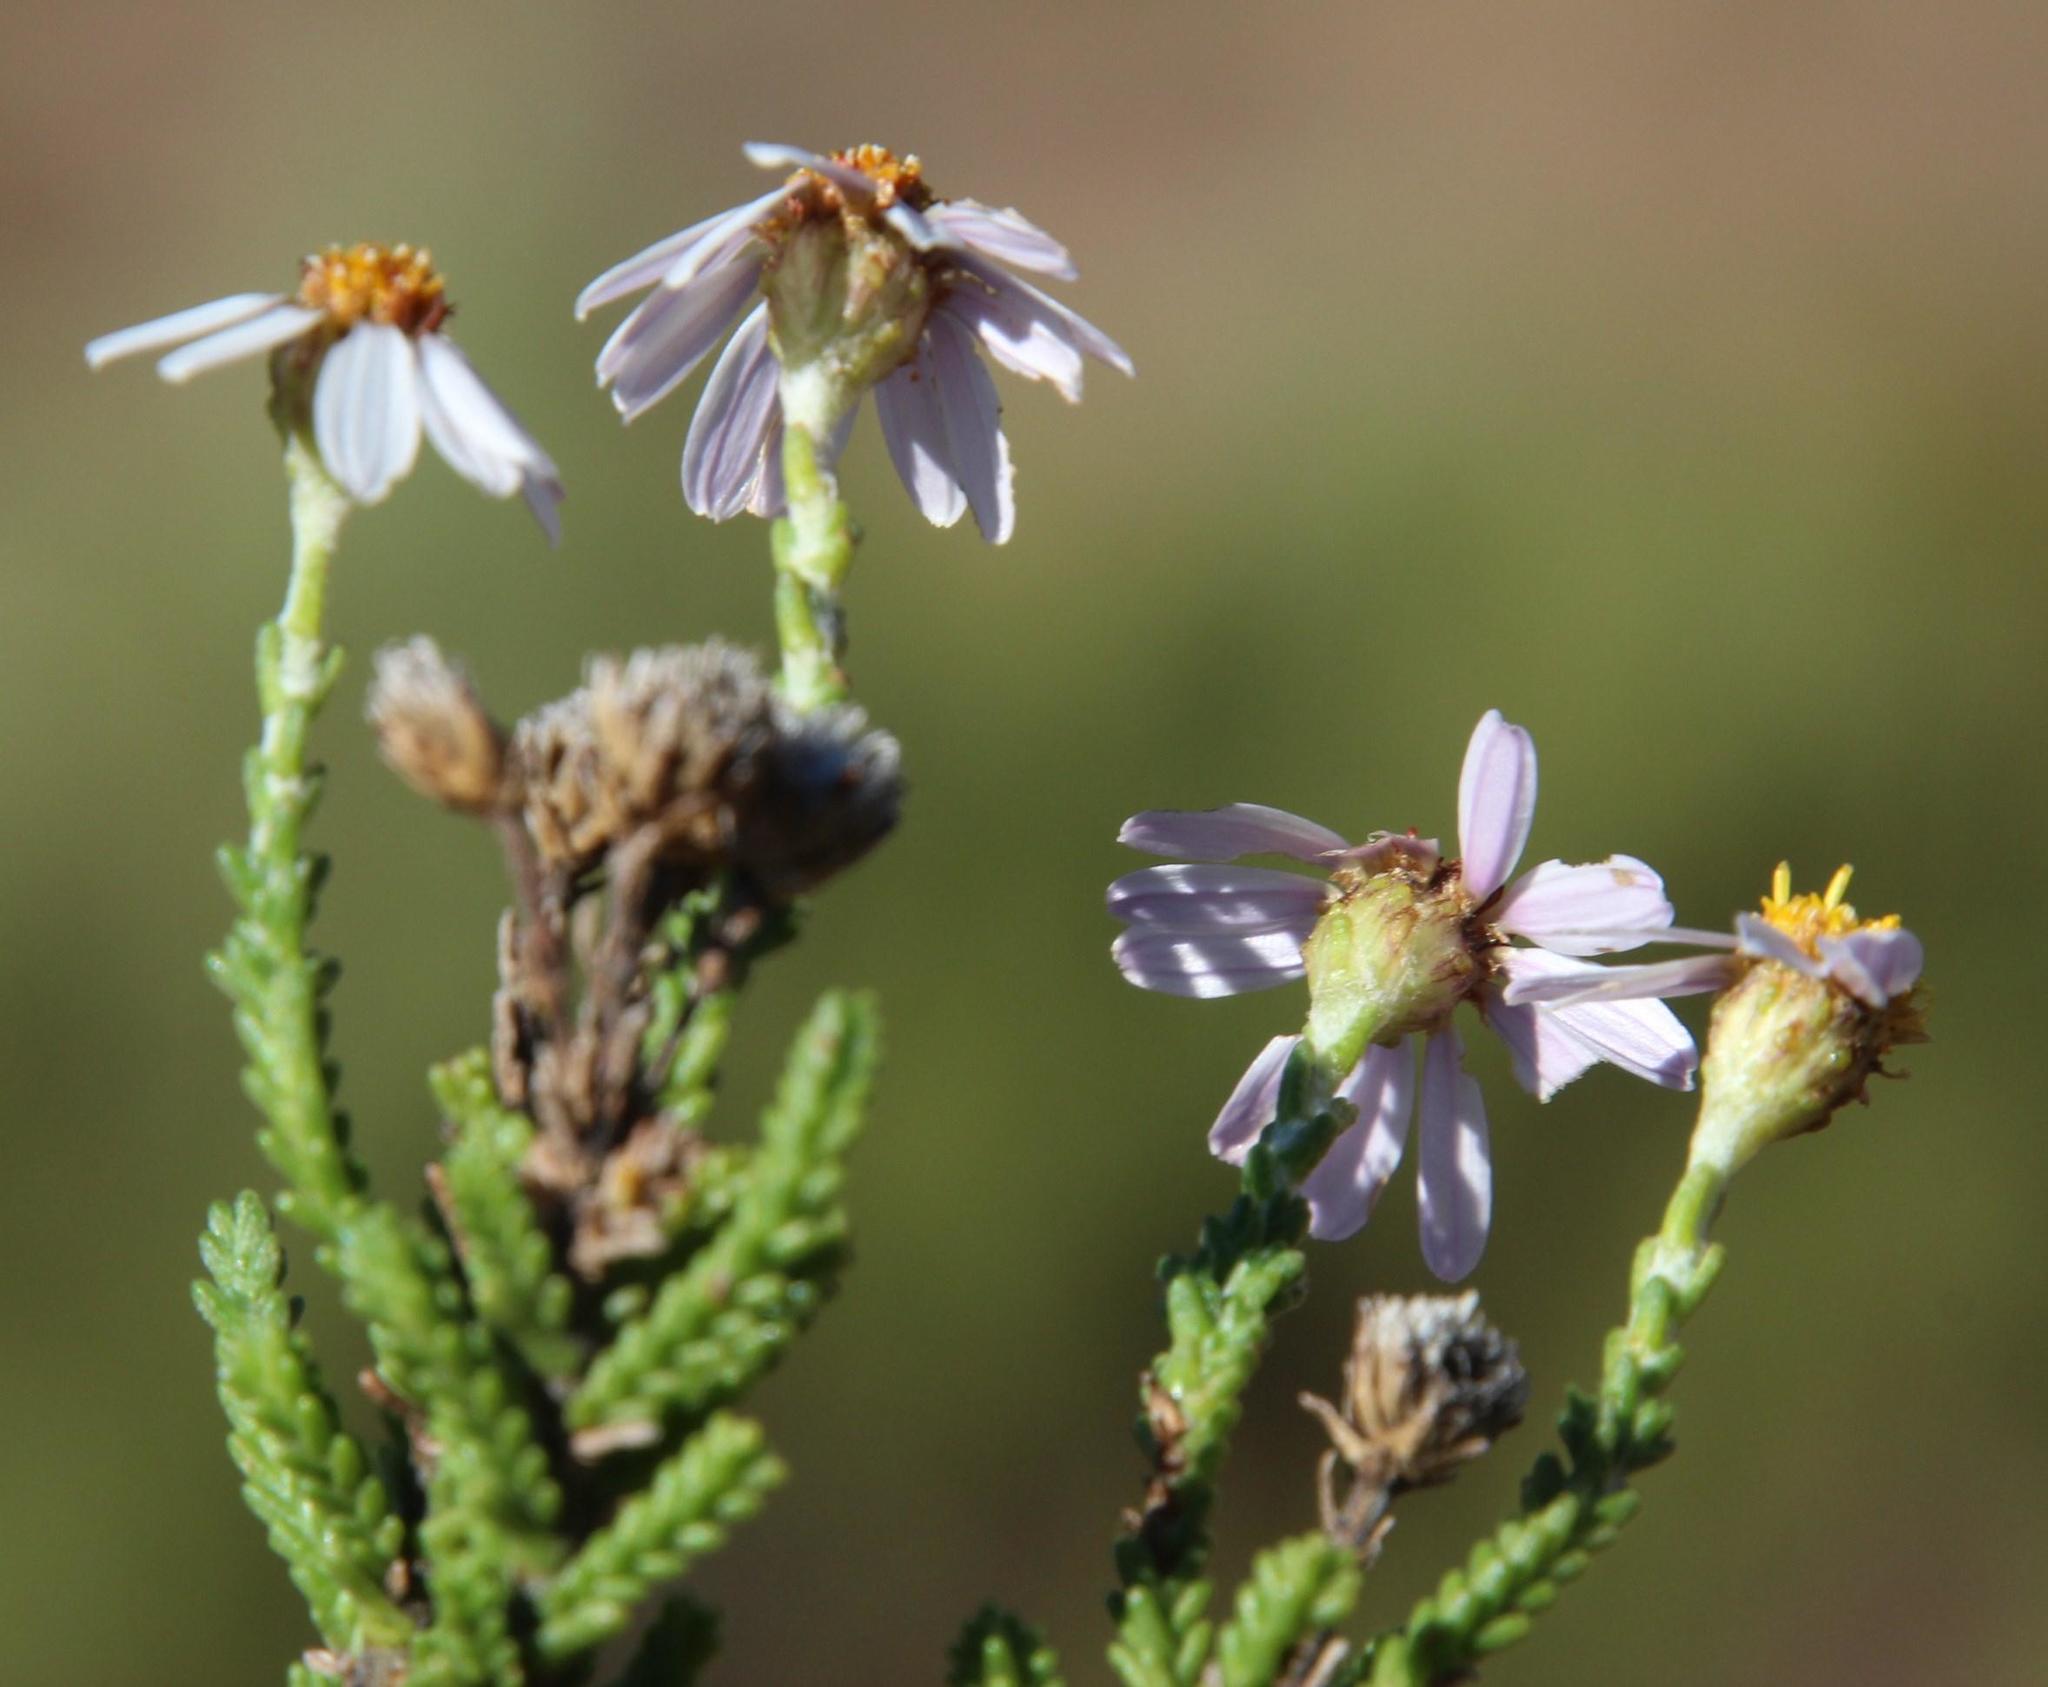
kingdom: Plantae
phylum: Tracheophyta
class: Magnoliopsida
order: Asterales
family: Asteraceae
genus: Eumorphia
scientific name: Eumorphia dregeana
